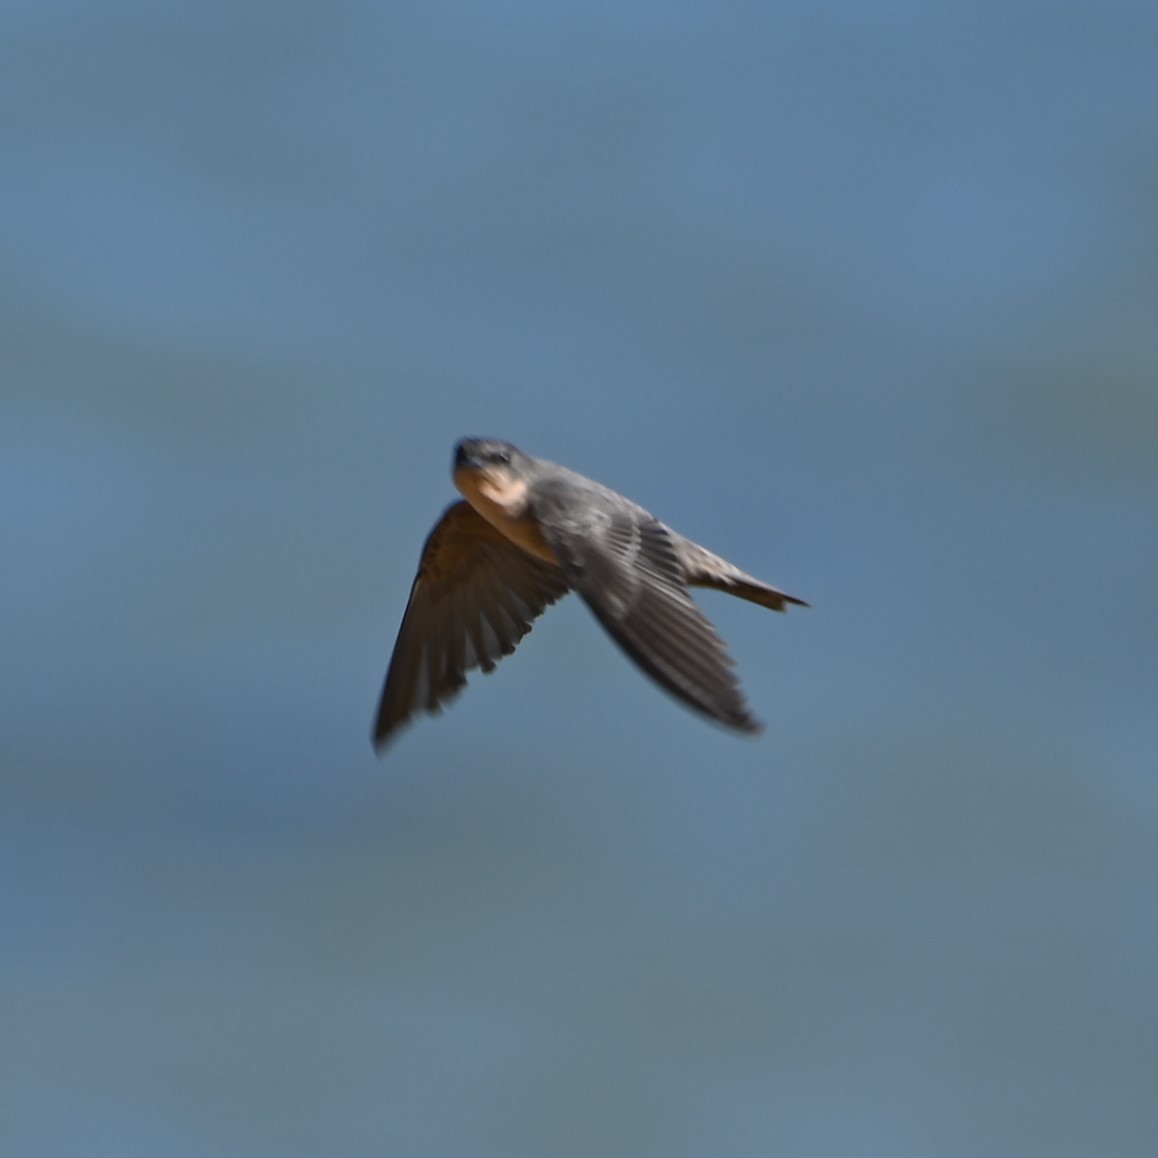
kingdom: Animalia
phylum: Chordata
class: Aves
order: Passeriformes
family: Hirundinidae
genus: Ptyonoprogne
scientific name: Ptyonoprogne fuligula
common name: Rock martin
